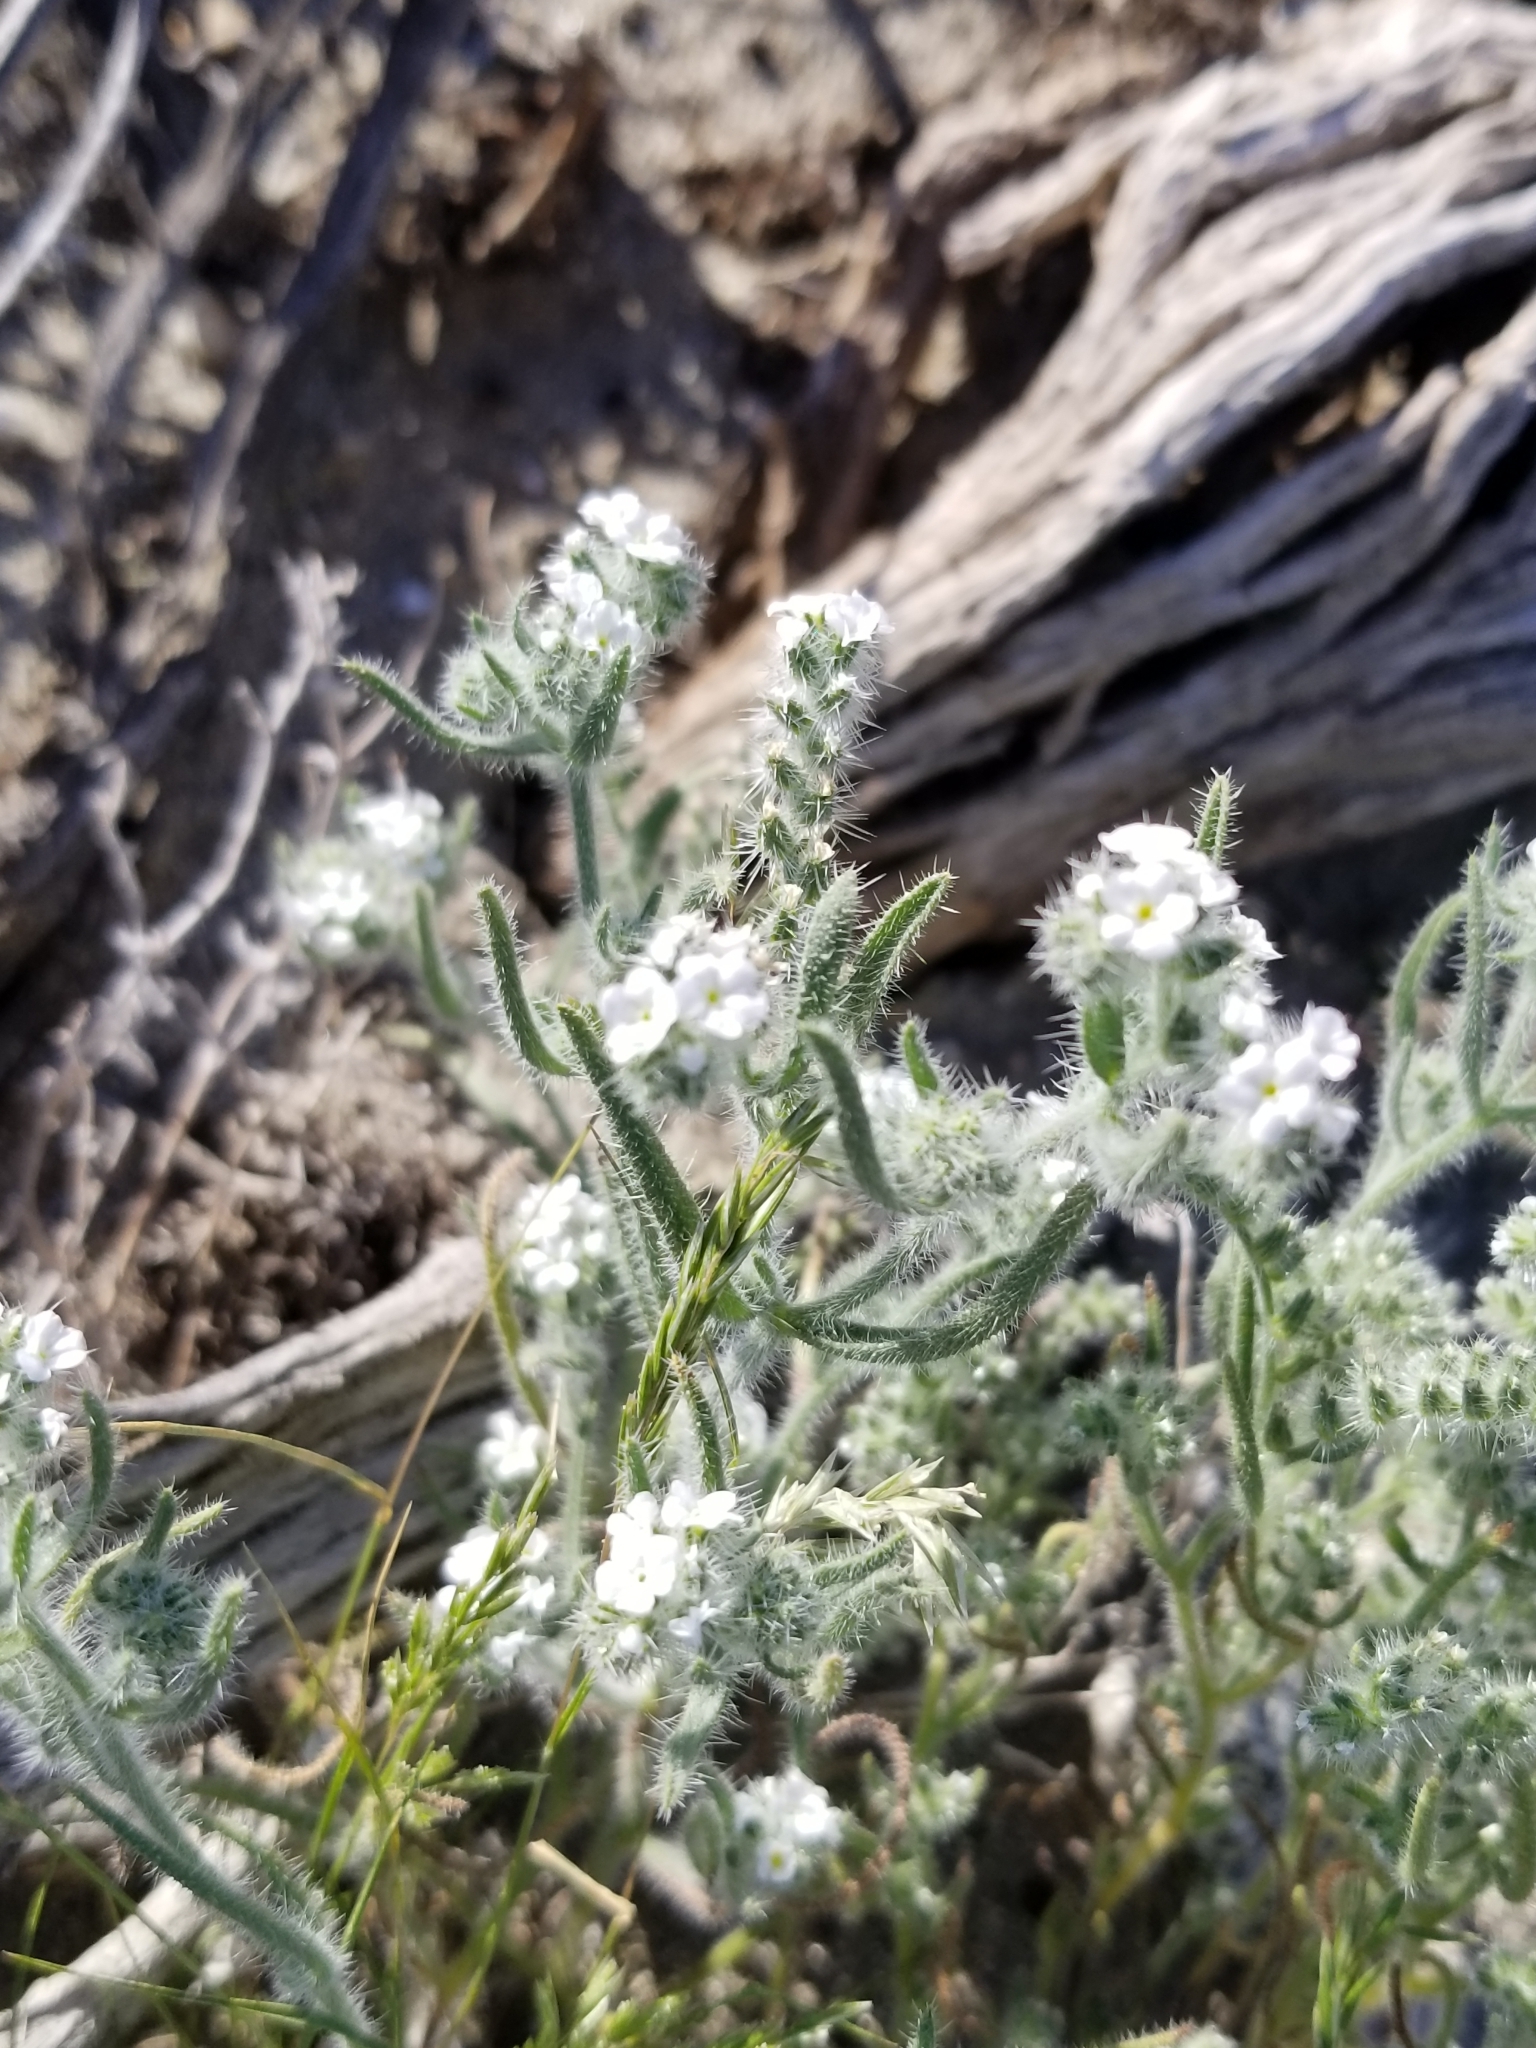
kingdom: Plantae
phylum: Tracheophyta
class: Magnoliopsida
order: Boraginales
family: Boraginaceae
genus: Johnstonella
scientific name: Johnstonella angustifolia
